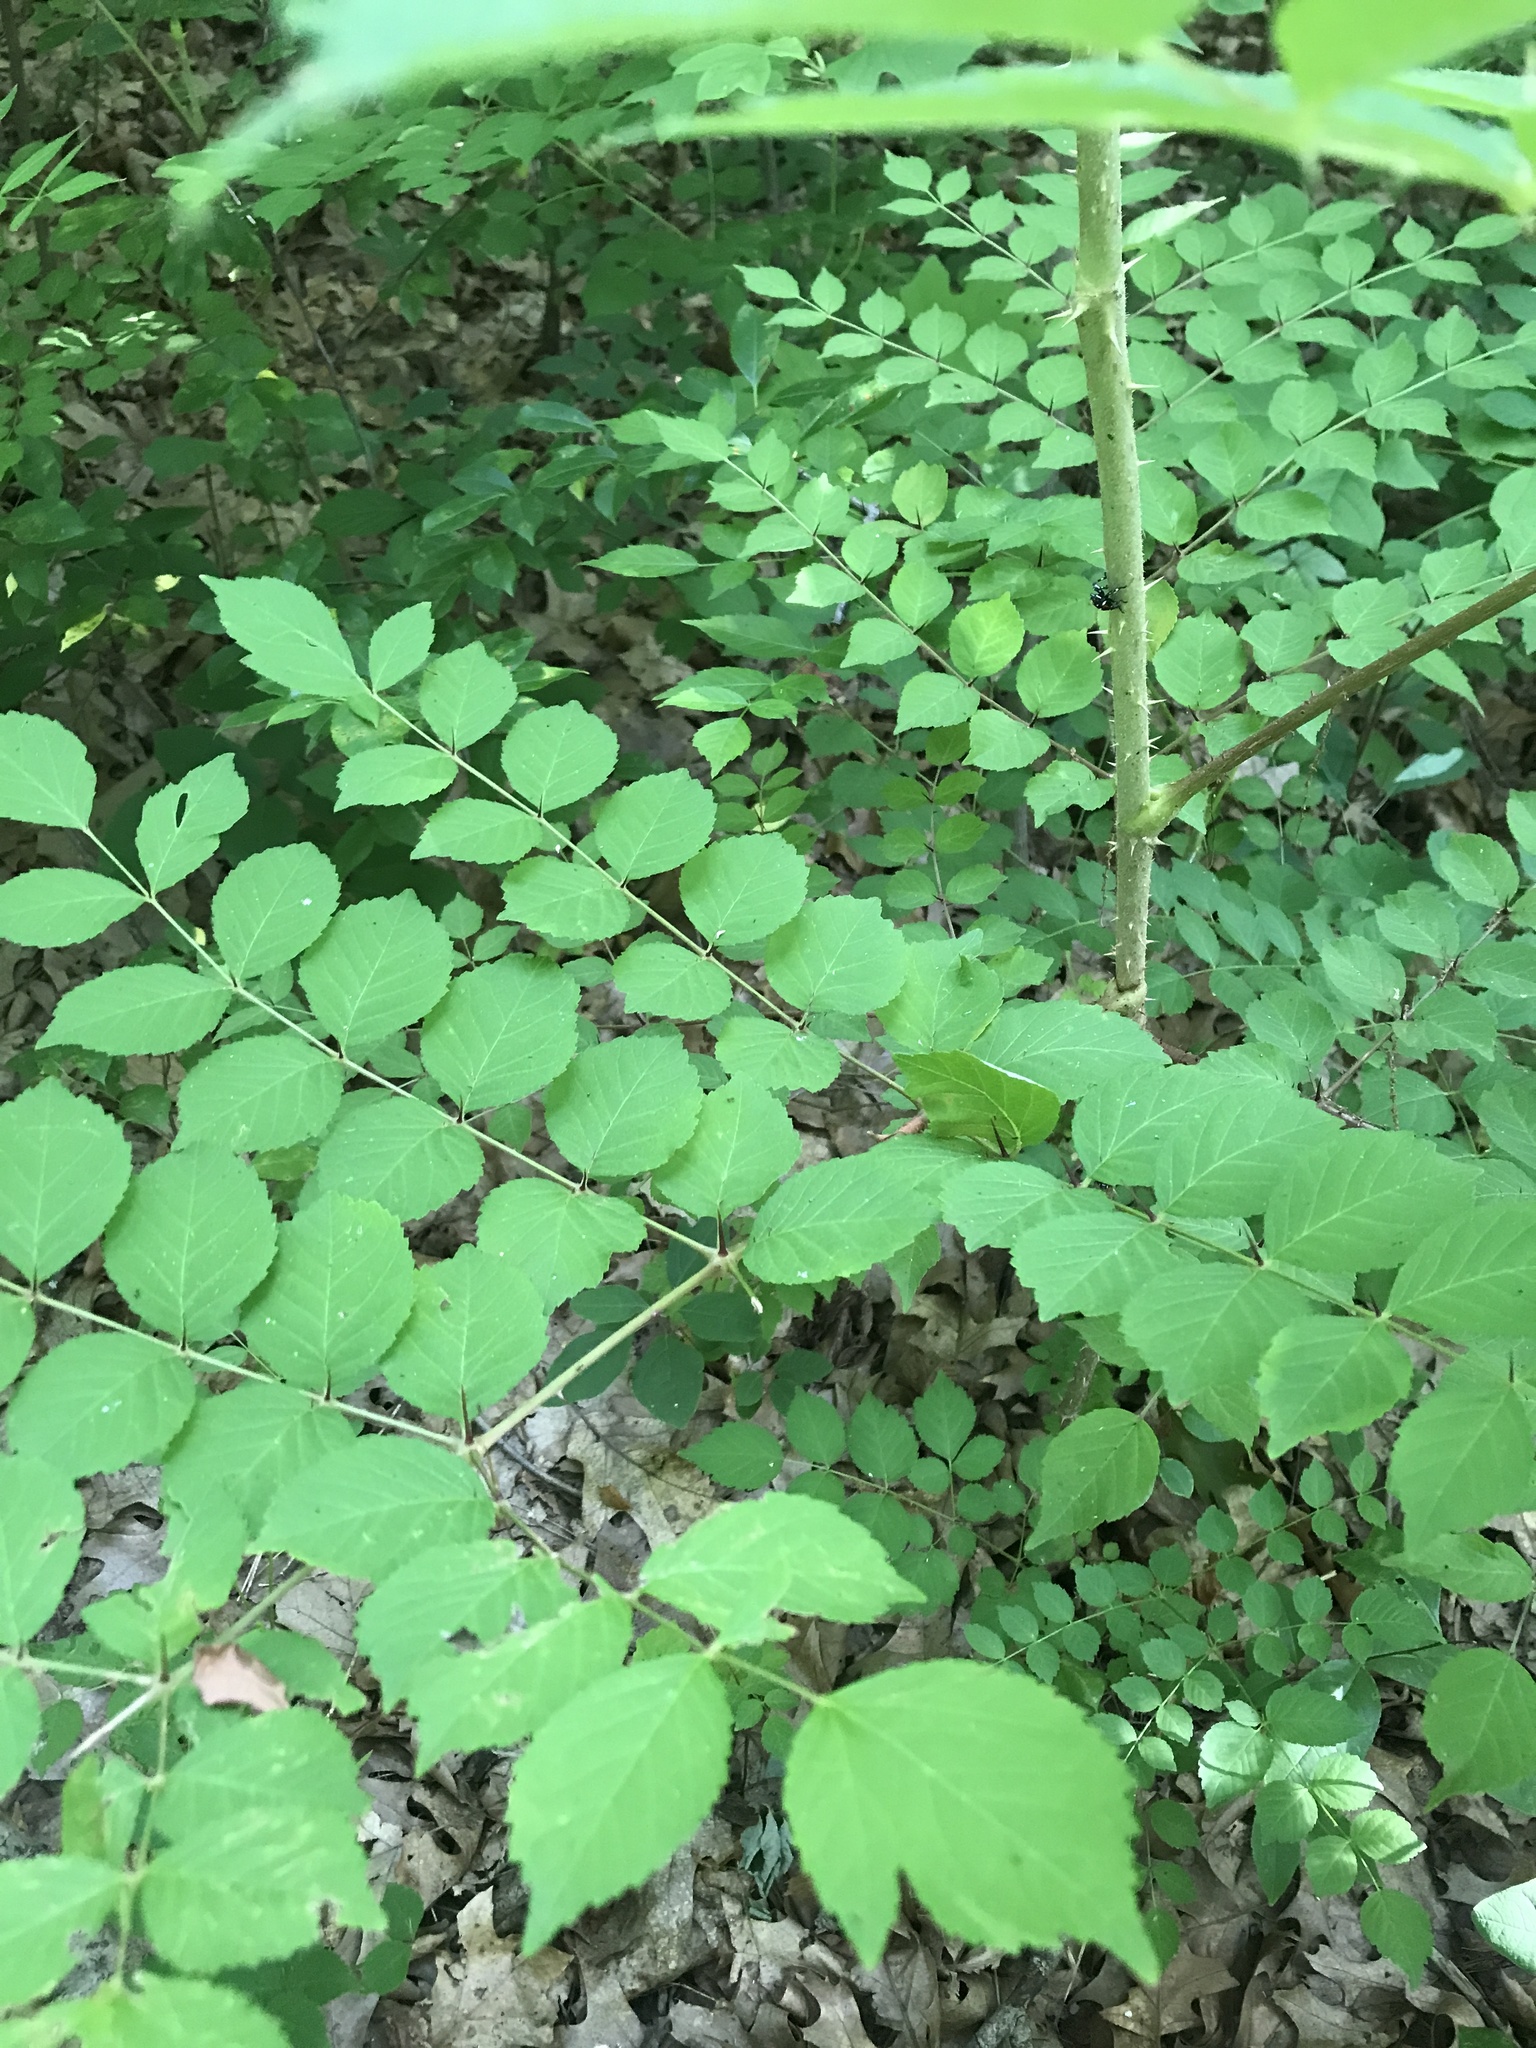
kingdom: Plantae
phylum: Tracheophyta
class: Magnoliopsida
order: Apiales
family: Araliaceae
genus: Aralia
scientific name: Aralia elata
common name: Japanese angelica-tree
